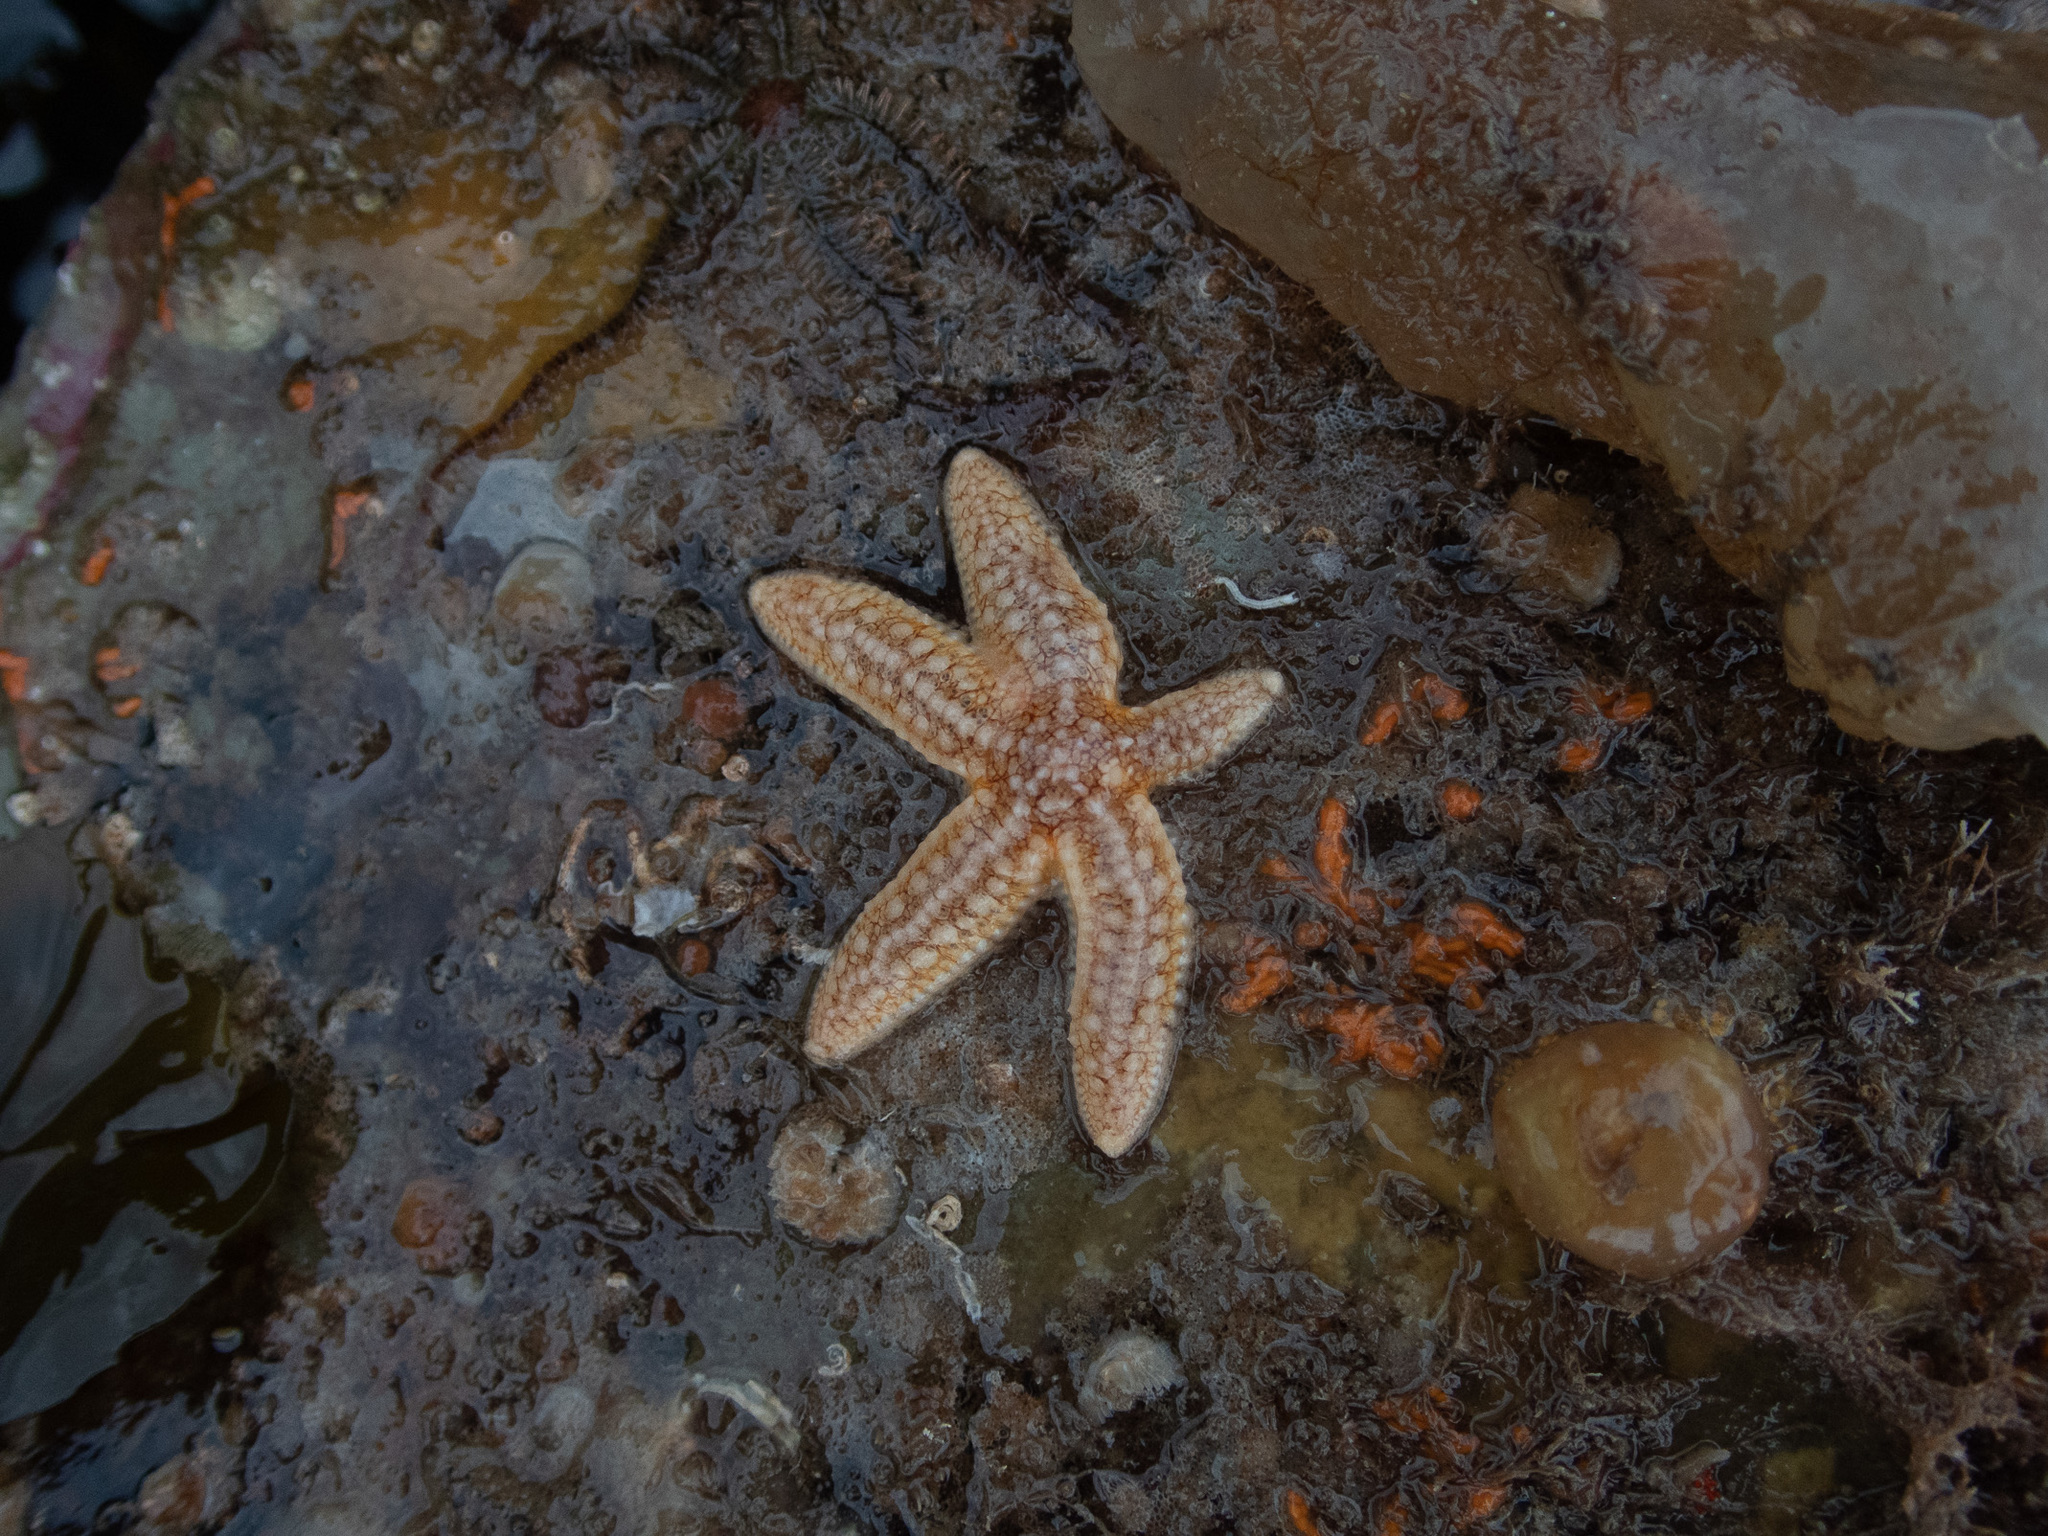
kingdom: Animalia
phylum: Echinodermata
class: Asteroidea
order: Forcipulatida
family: Asteriidae
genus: Asterias
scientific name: Asterias rubens
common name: Common starfish
